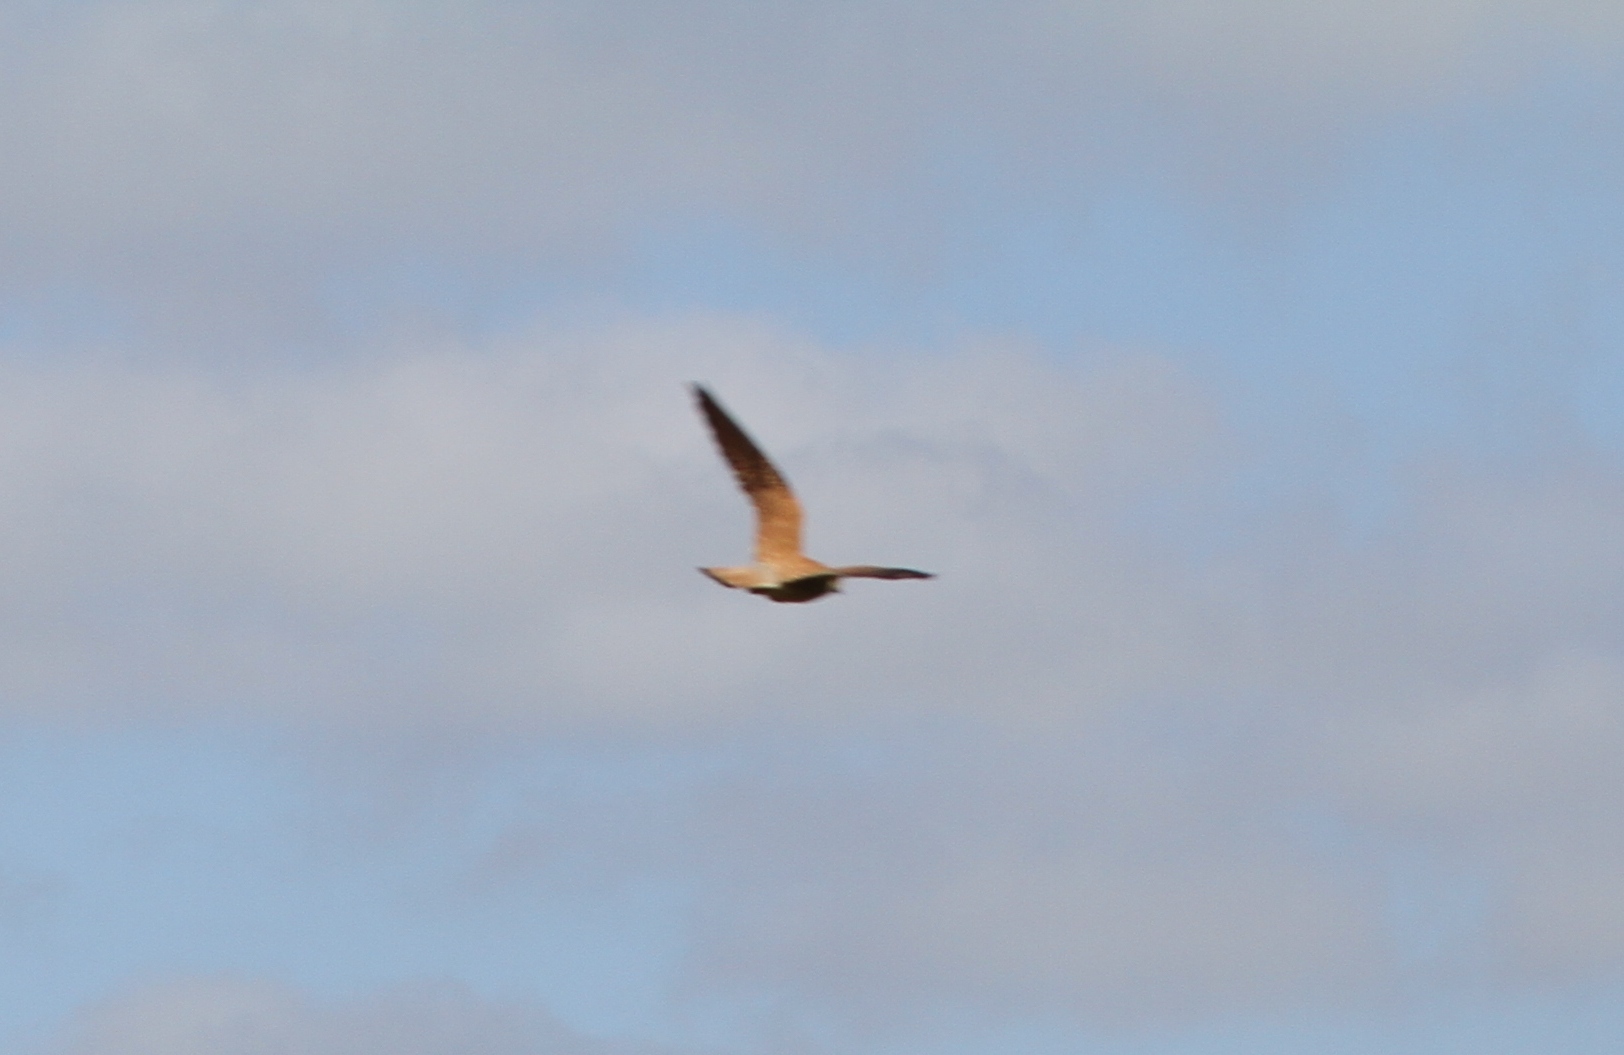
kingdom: Animalia
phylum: Chordata
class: Aves
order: Falconiformes
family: Falconidae
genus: Falco
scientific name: Falco naumanni
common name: Lesser kestrel
